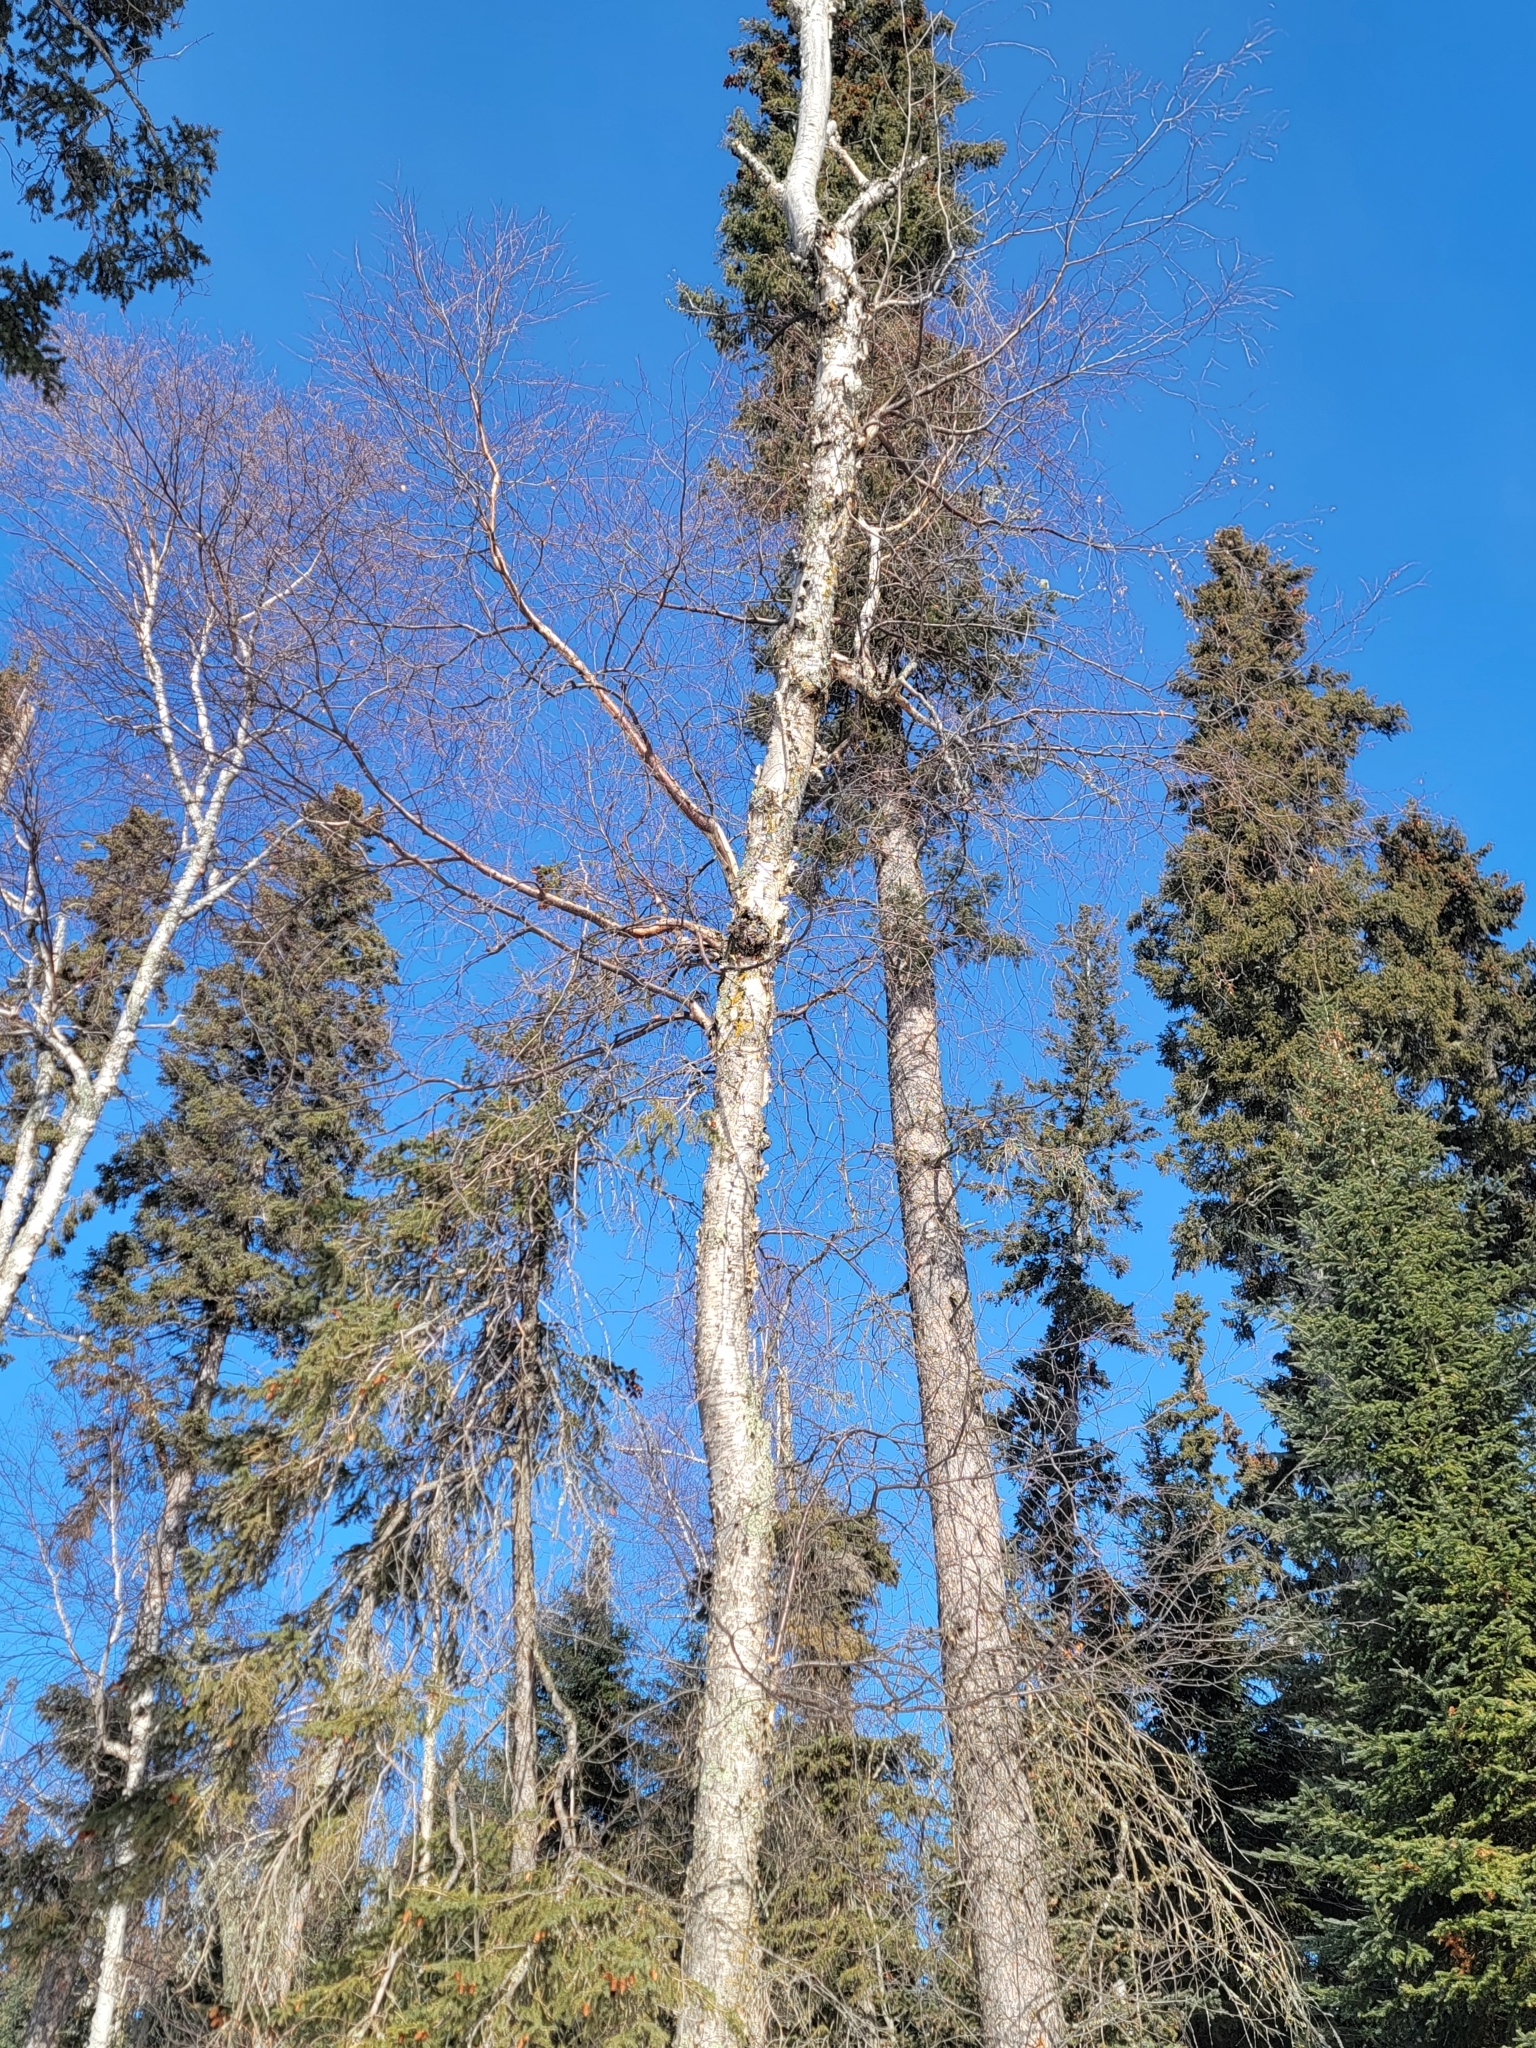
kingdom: Plantae
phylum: Tracheophyta
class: Magnoliopsida
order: Fagales
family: Betulaceae
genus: Betula
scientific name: Betula papyrifera
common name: Paper birch
